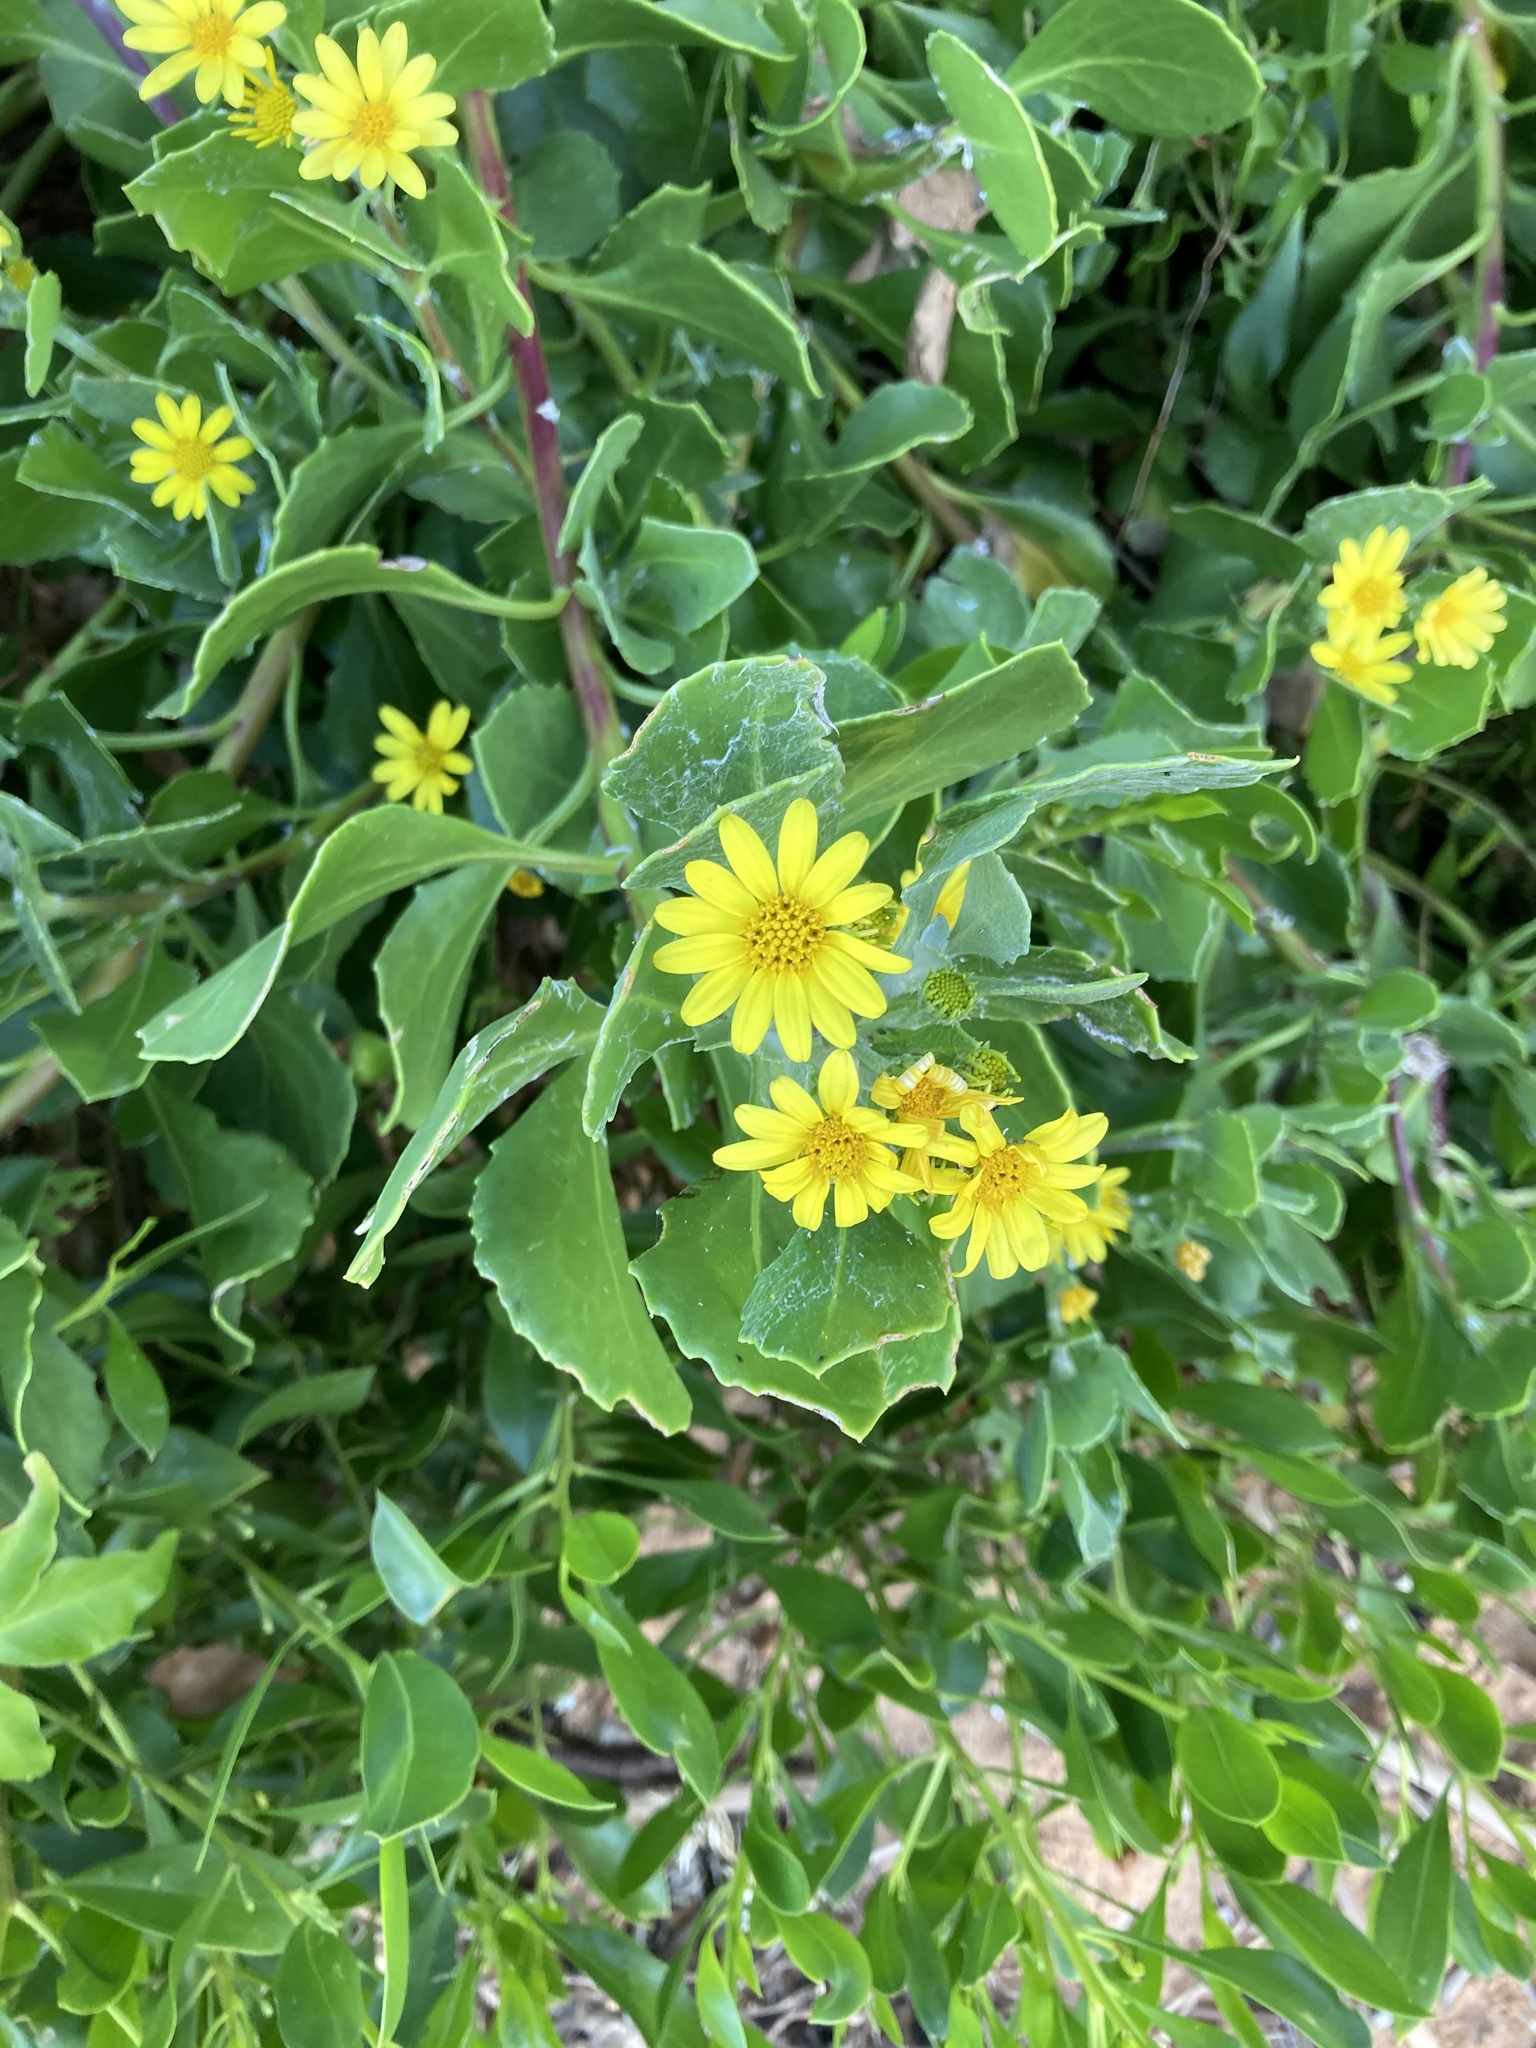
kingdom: Plantae
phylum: Tracheophyta
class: Magnoliopsida
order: Asterales
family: Asteraceae
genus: Osteospermum
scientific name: Osteospermum moniliferum
